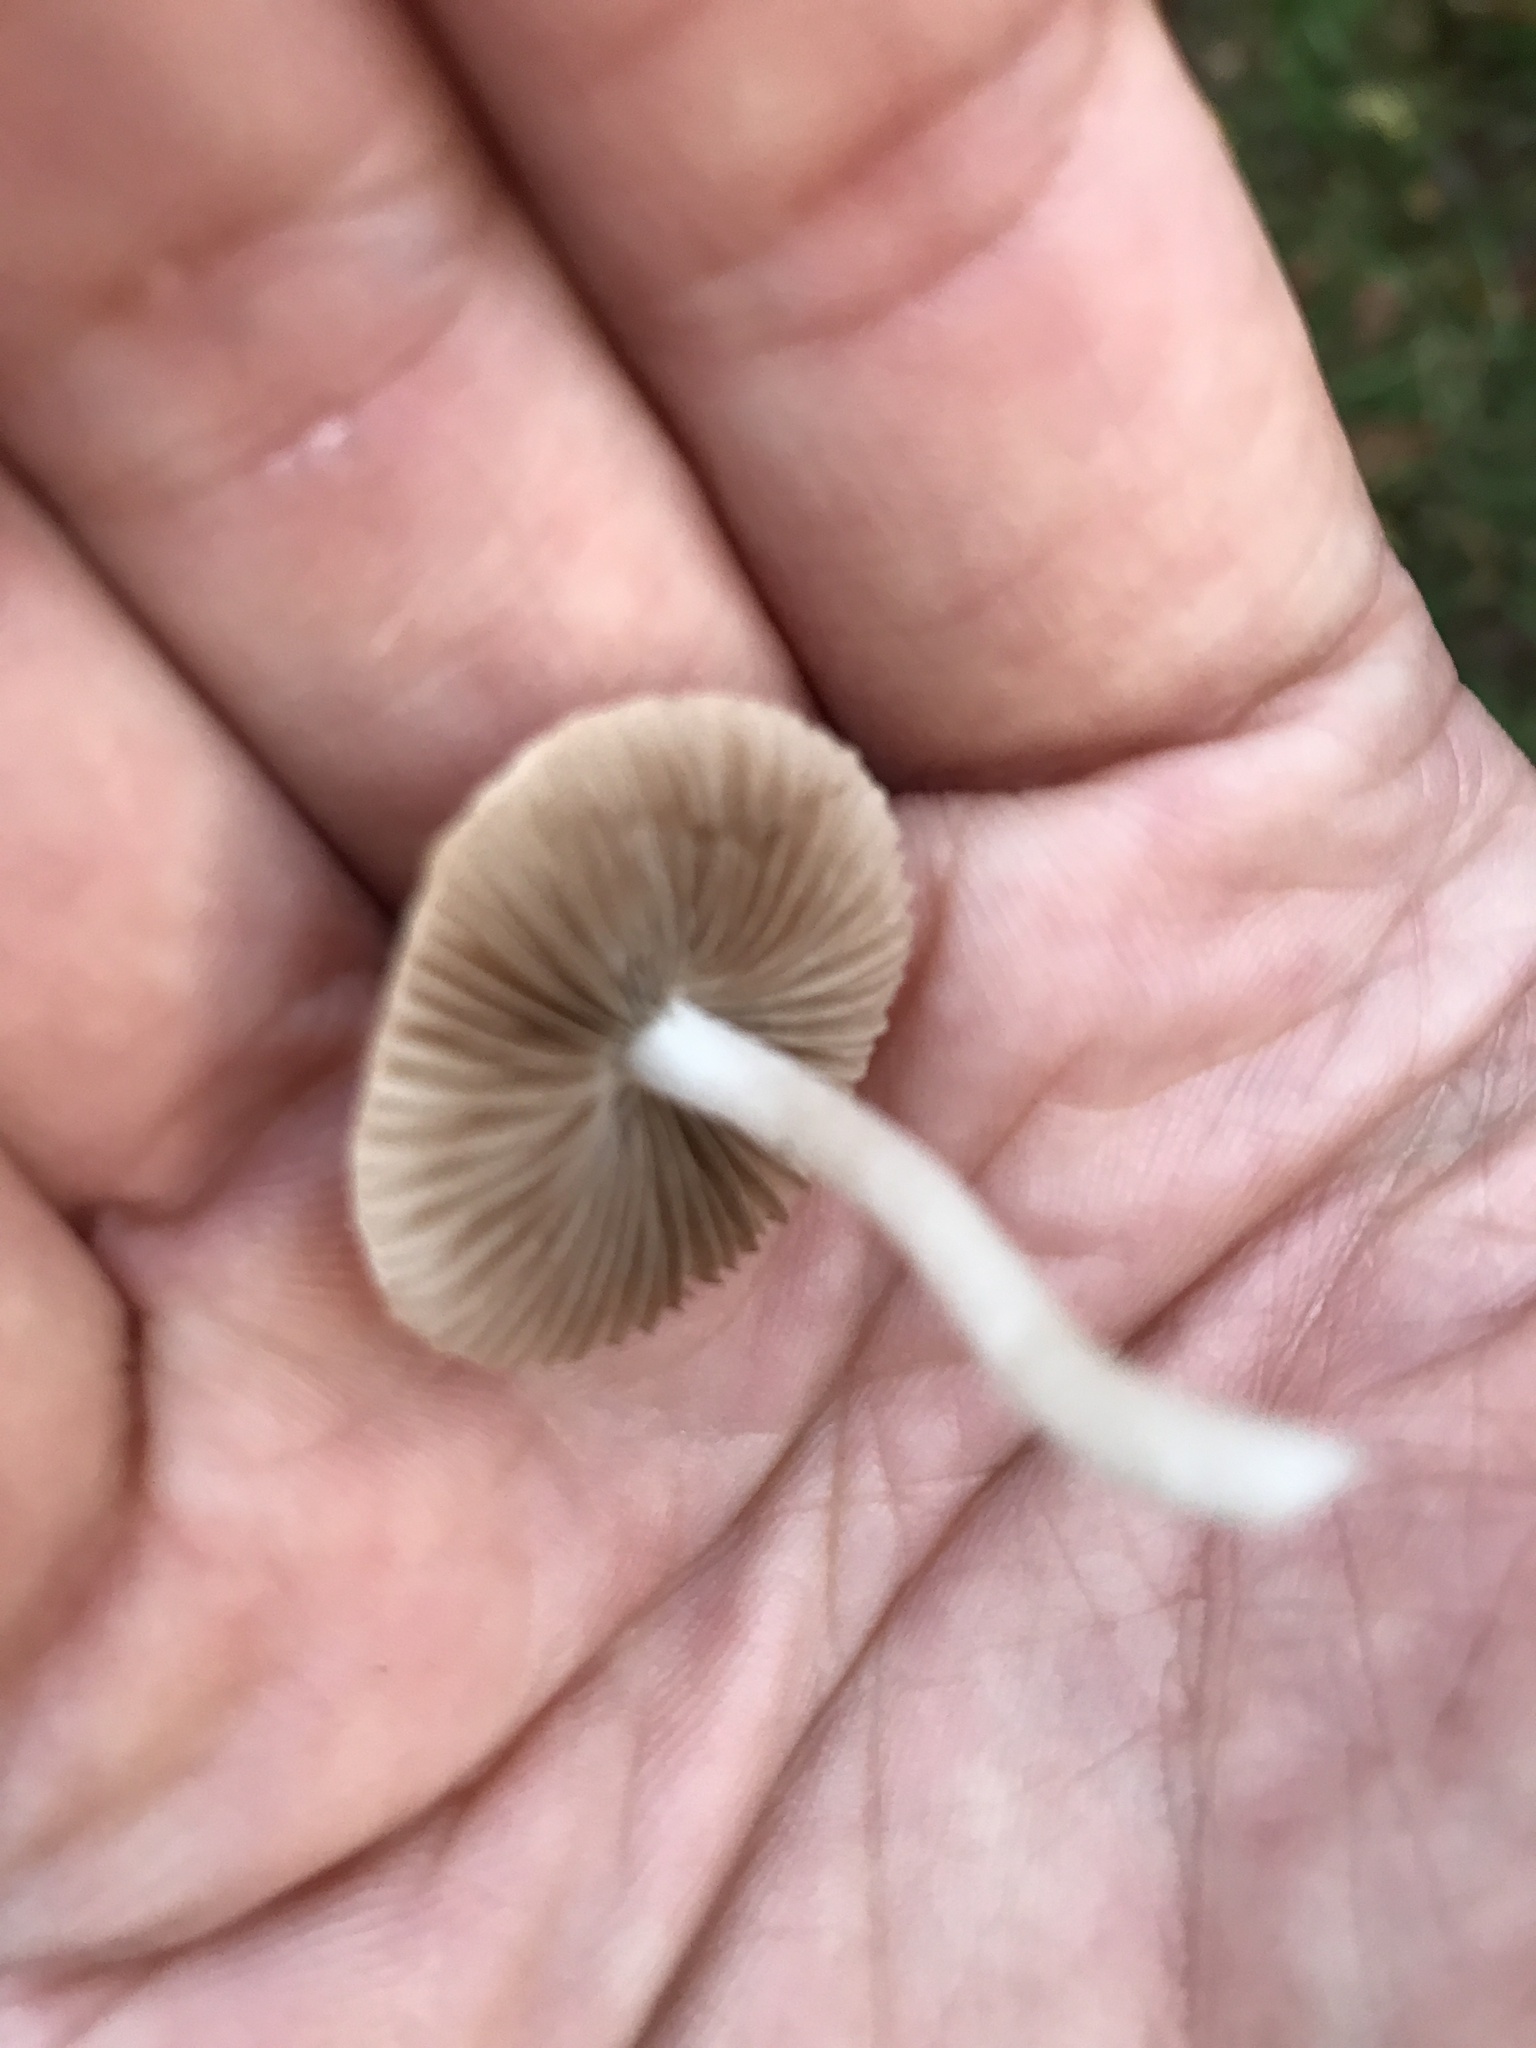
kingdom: Fungi
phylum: Basidiomycota
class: Agaricomycetes
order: Agaricales
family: Inocybaceae
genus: Inocybe
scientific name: Inocybe geophylla
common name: White fibrecap
